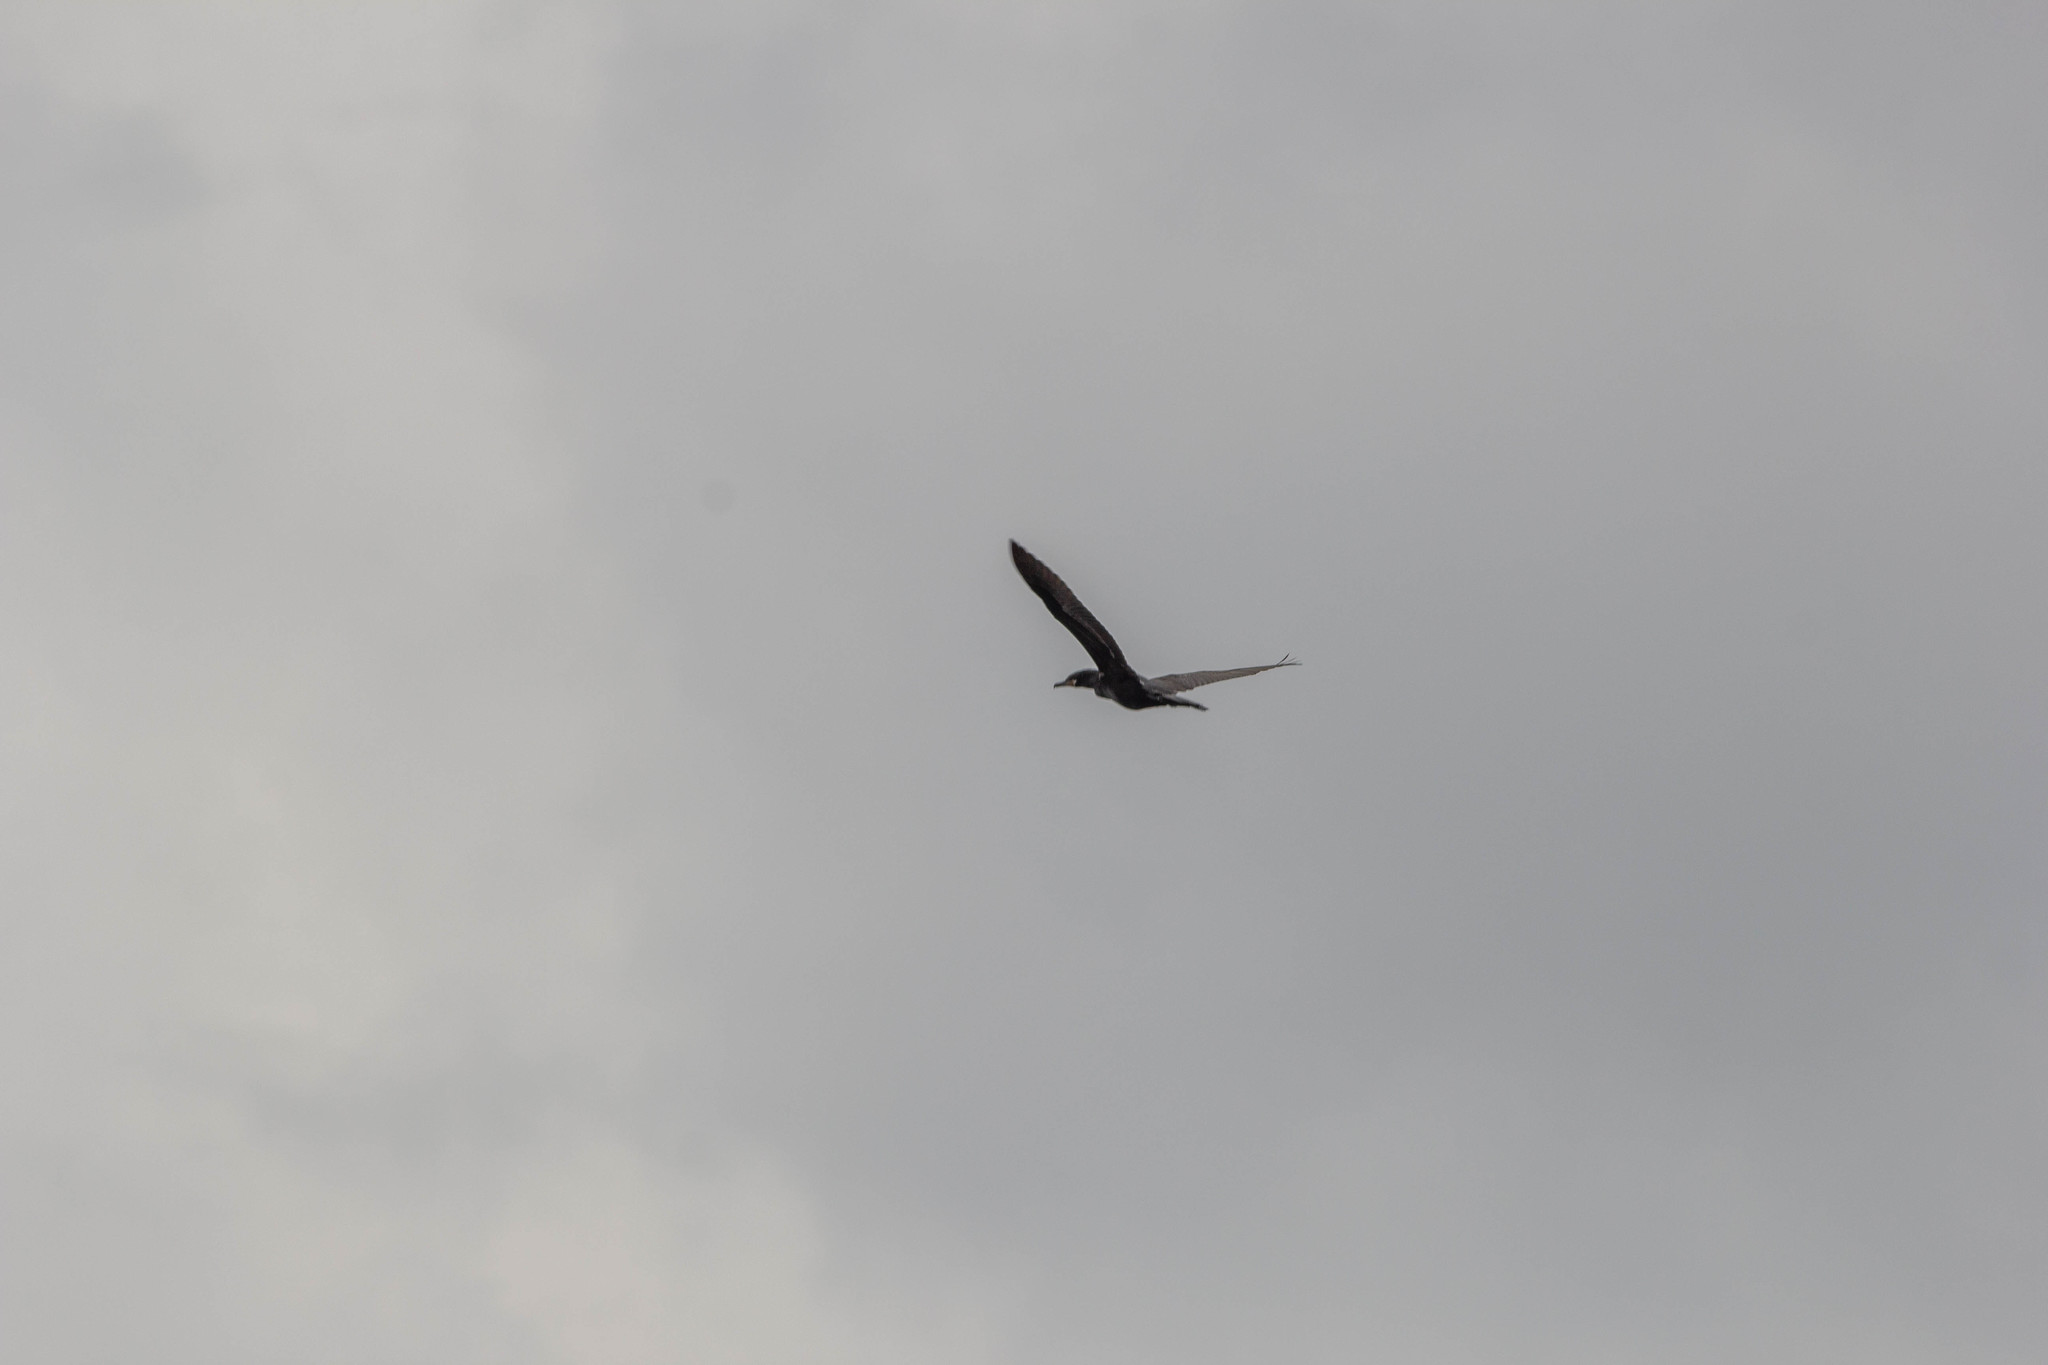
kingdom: Animalia
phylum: Chordata
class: Aves
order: Suliformes
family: Phalacrocoracidae
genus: Phalacrocorax
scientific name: Phalacrocorax brasilianus
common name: Neotropic cormorant
